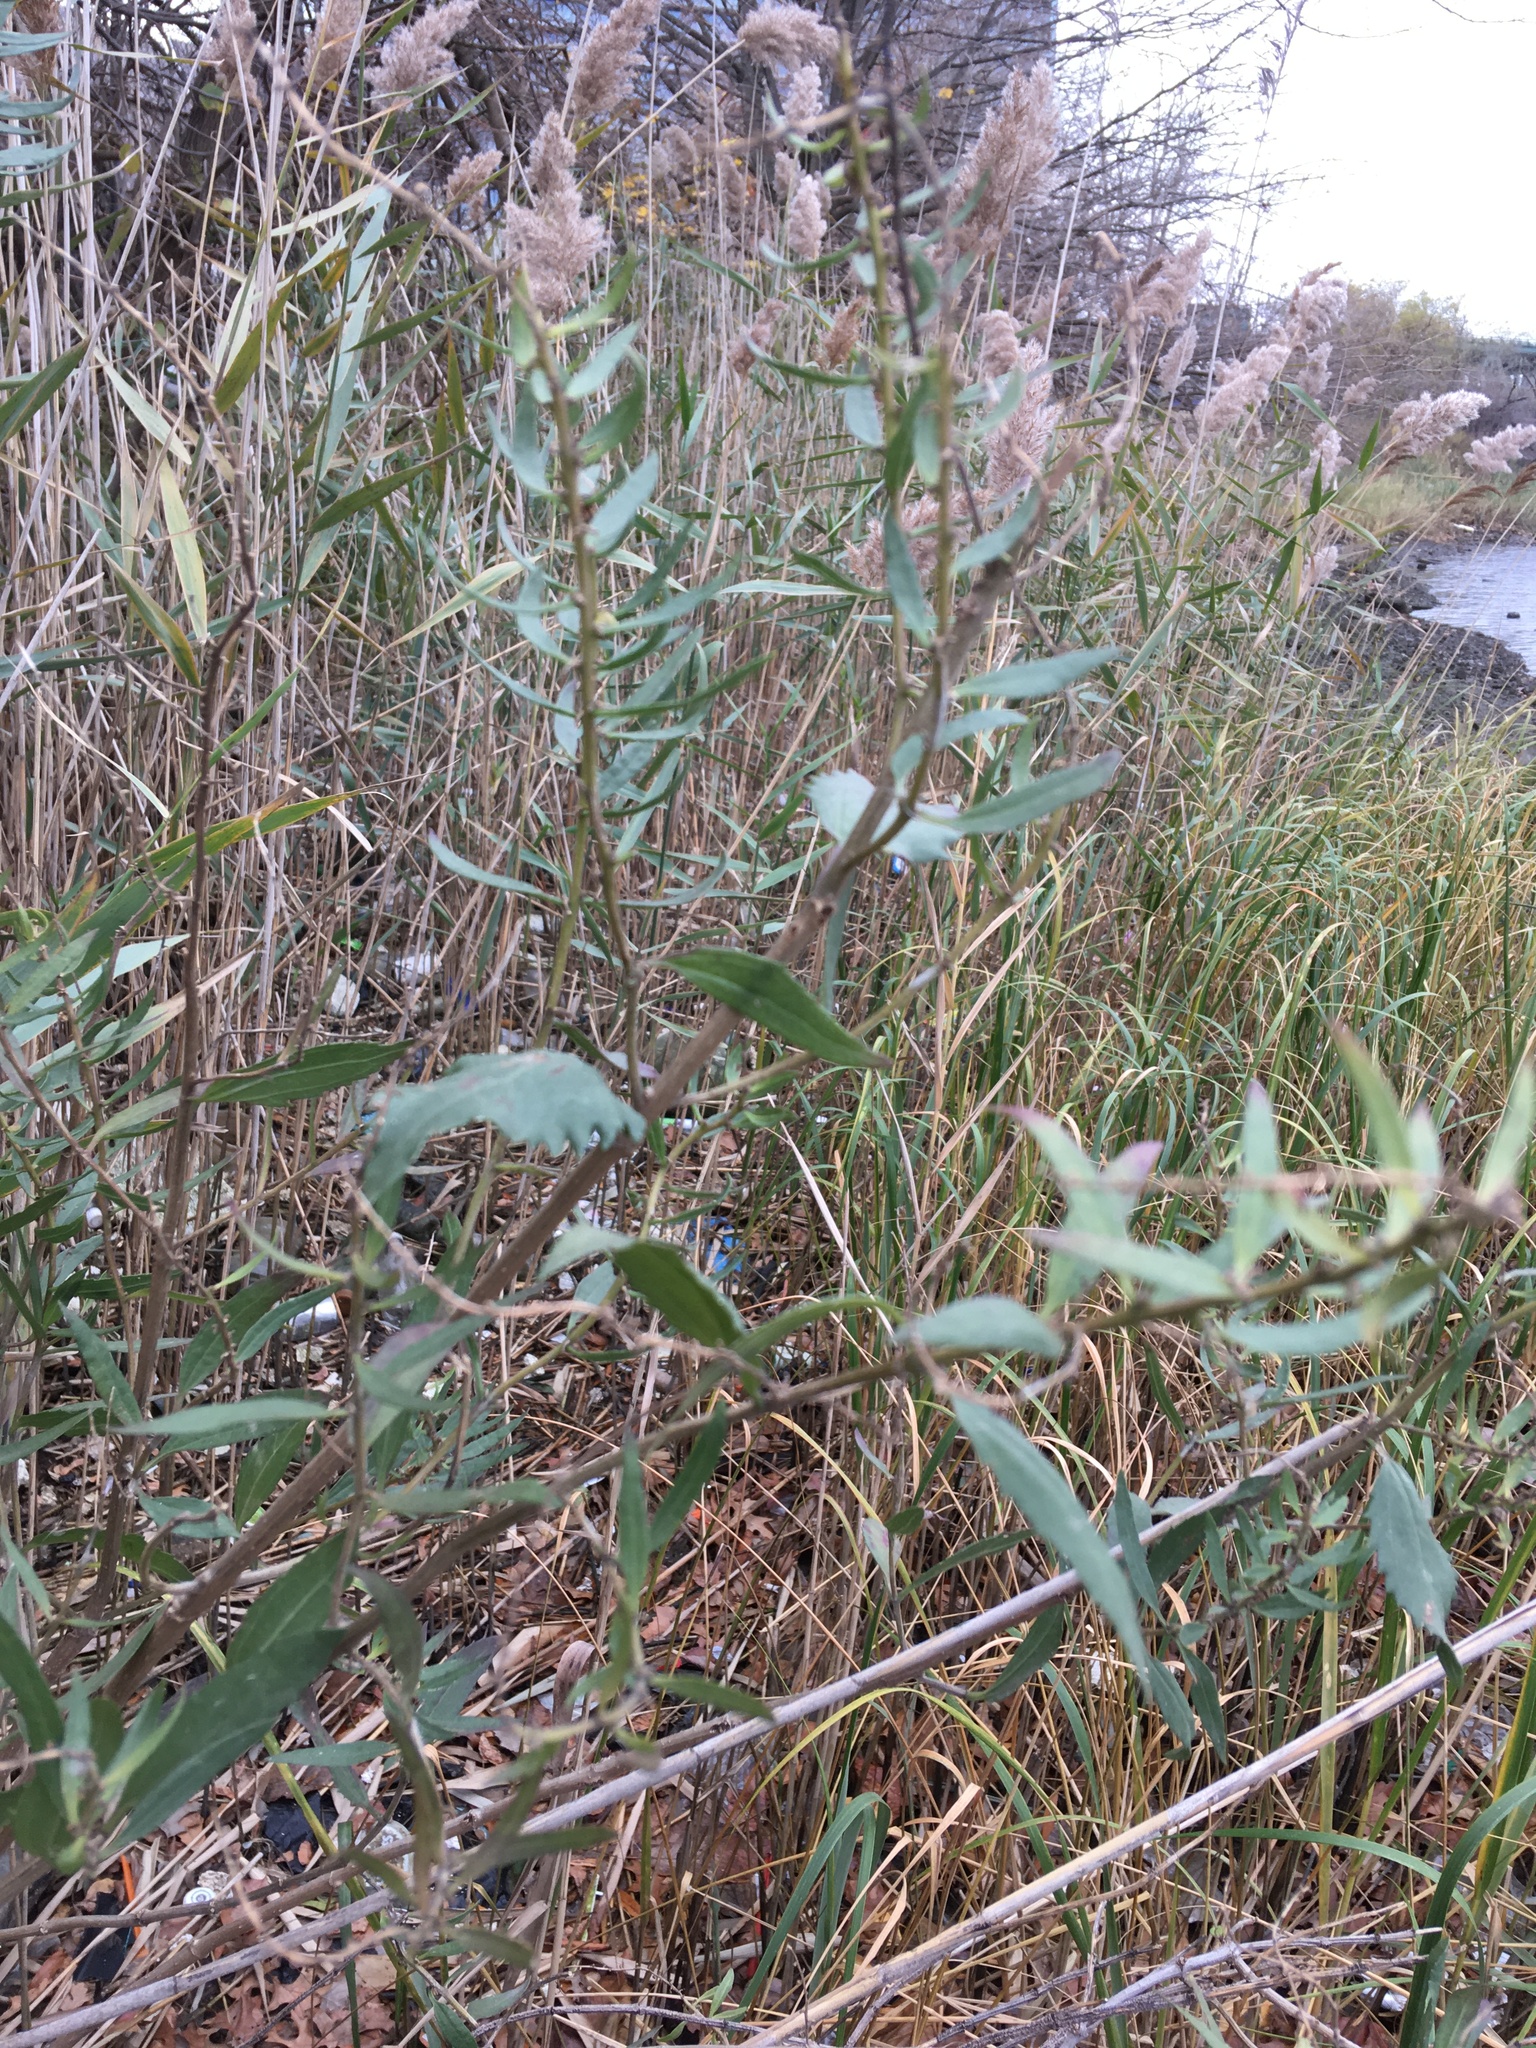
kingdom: Plantae
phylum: Tracheophyta
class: Magnoliopsida
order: Asterales
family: Asteraceae
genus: Iva
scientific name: Iva frutescens
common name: Big-leaved marsh-elder
